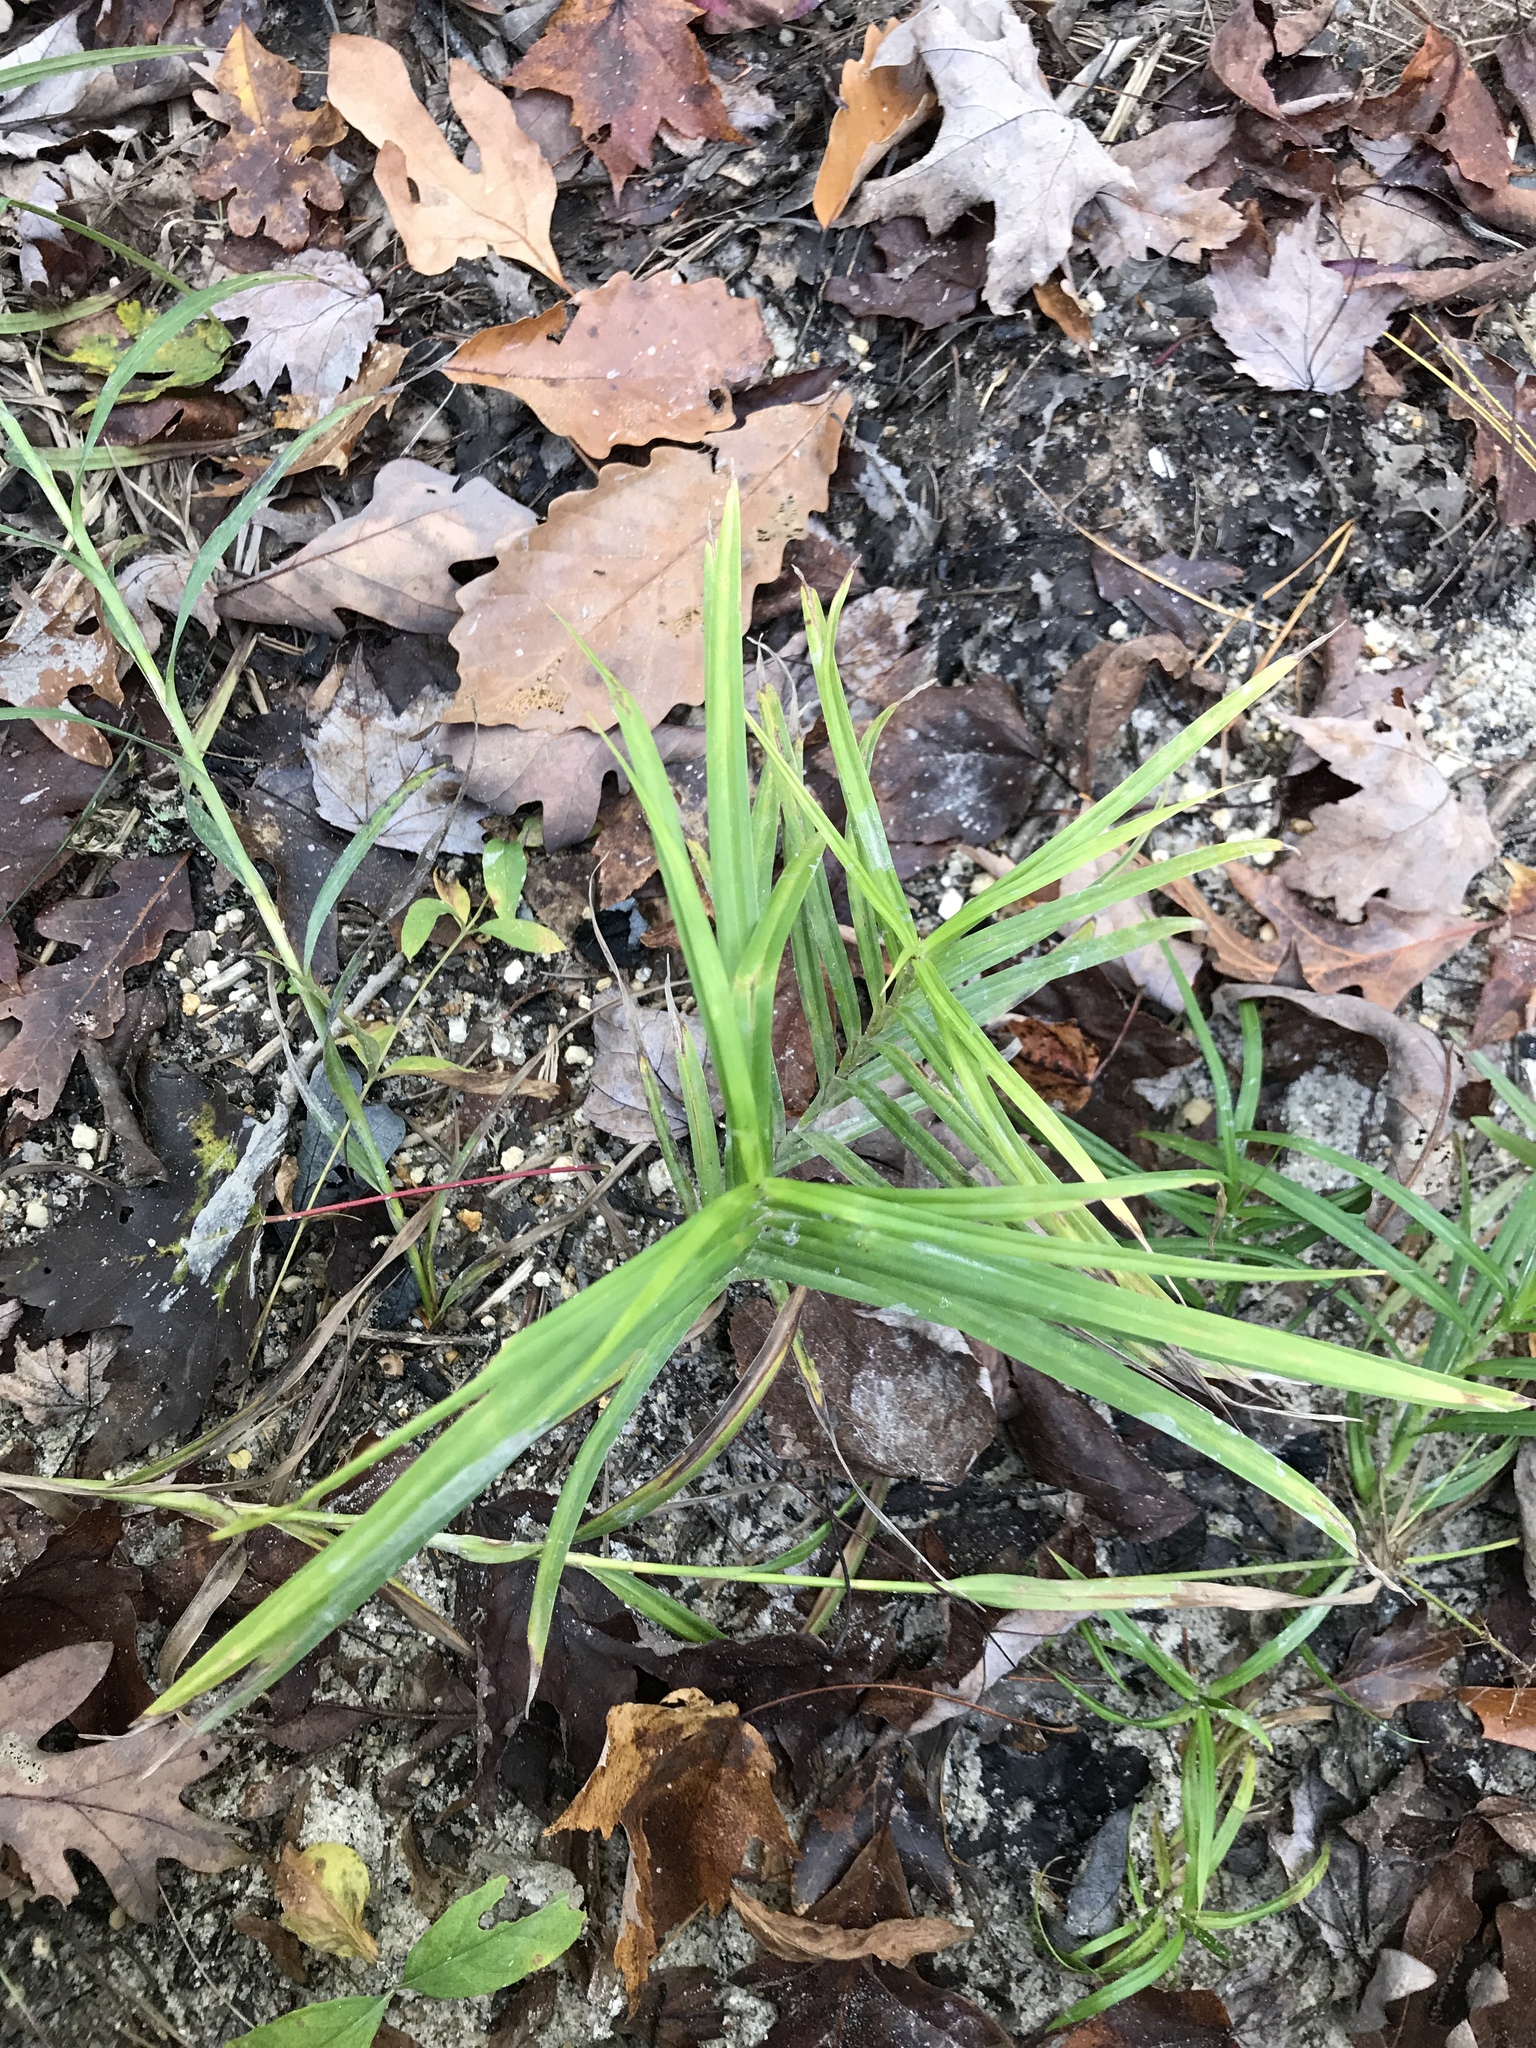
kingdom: Plantae
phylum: Tracheophyta
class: Liliopsida
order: Poales
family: Cyperaceae
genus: Dulichium
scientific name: Dulichium arundinaceum
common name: Three-way sedge
